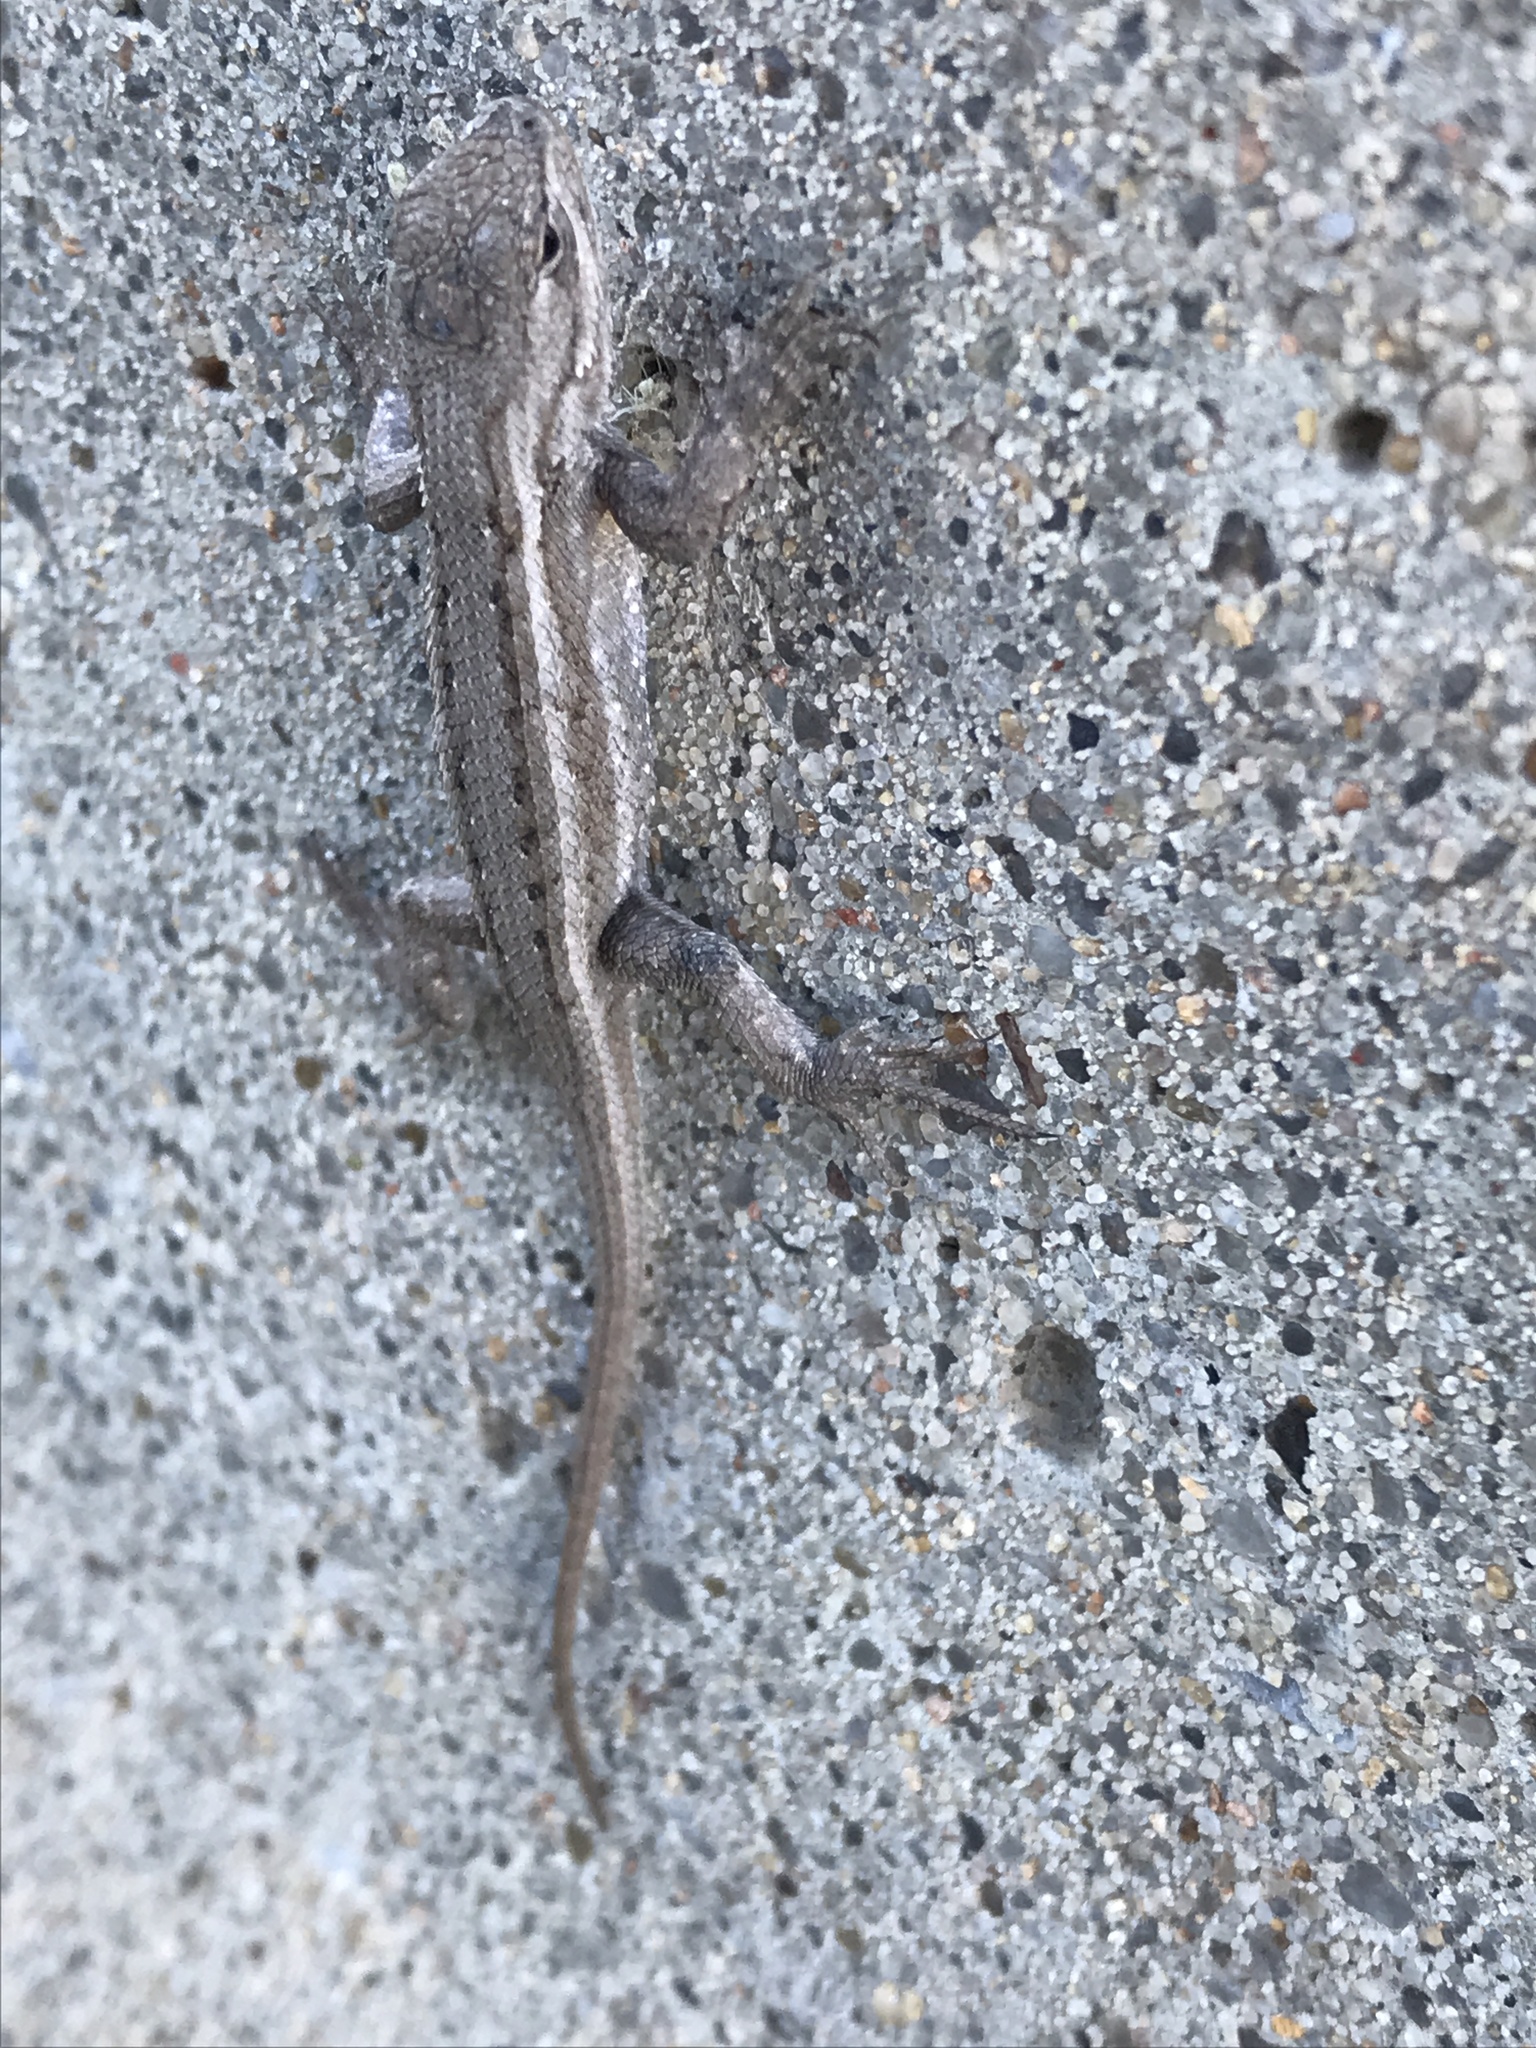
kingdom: Animalia
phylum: Chordata
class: Squamata
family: Phrynosomatidae
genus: Sceloporus
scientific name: Sceloporus consobrinus
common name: Southern prairie lizard
